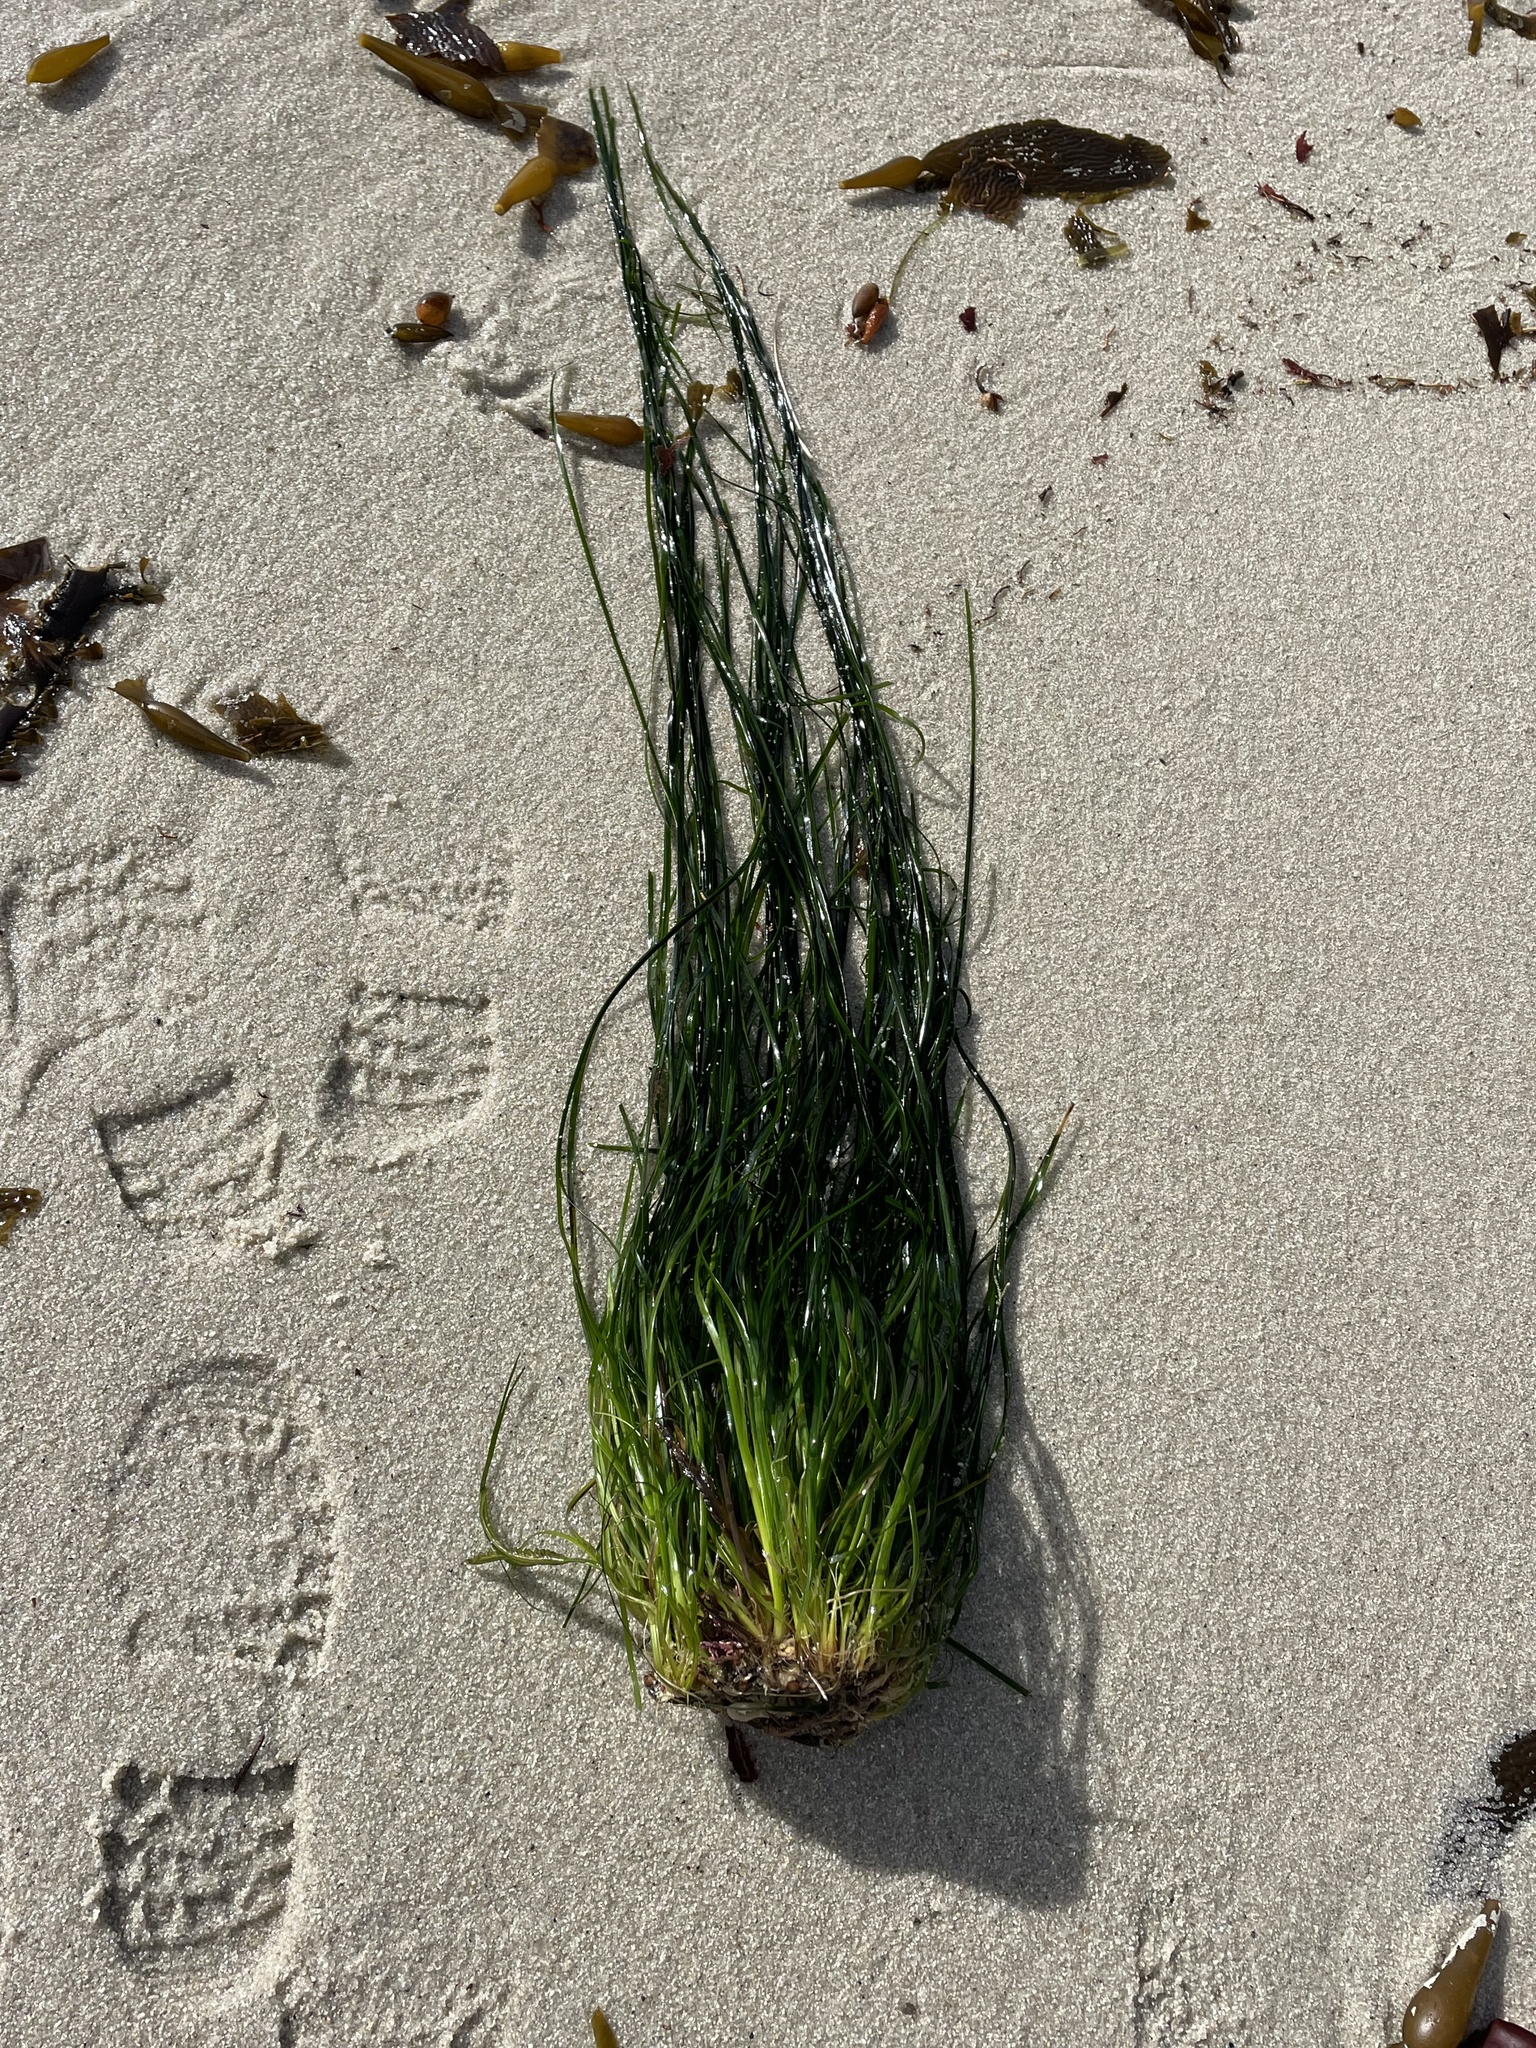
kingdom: Plantae
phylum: Tracheophyta
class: Liliopsida
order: Alismatales
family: Zosteraceae
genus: Phyllospadix
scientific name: Phyllospadix scouleri
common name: Species code: ps
